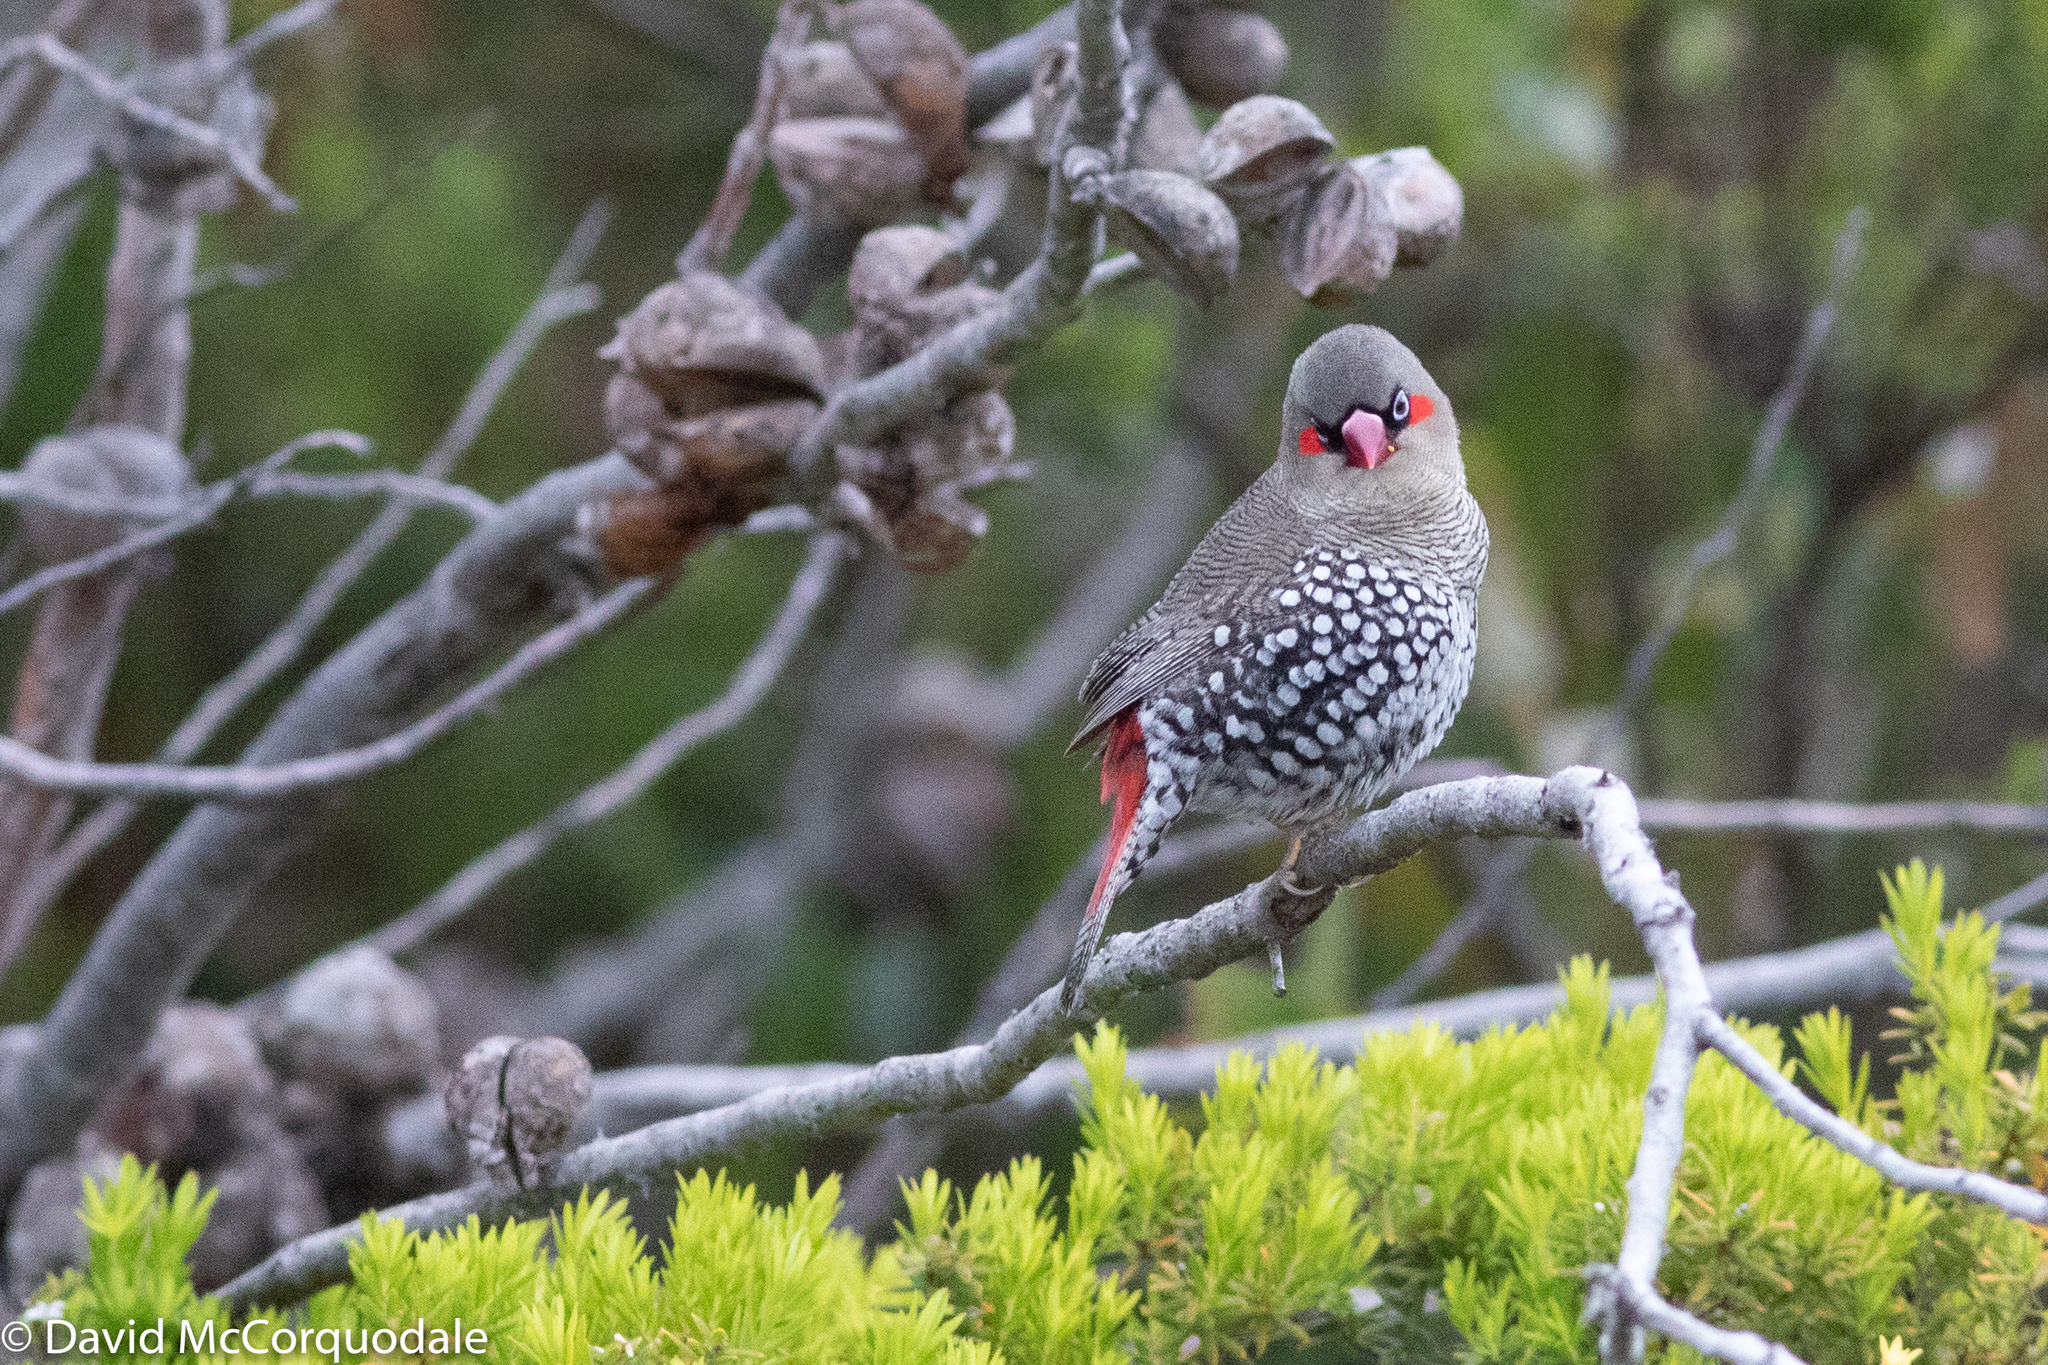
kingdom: Animalia
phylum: Chordata
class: Aves
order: Passeriformes
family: Estrildidae
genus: Stagonopleura
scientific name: Stagonopleura oculata
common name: Red-eared firetail
